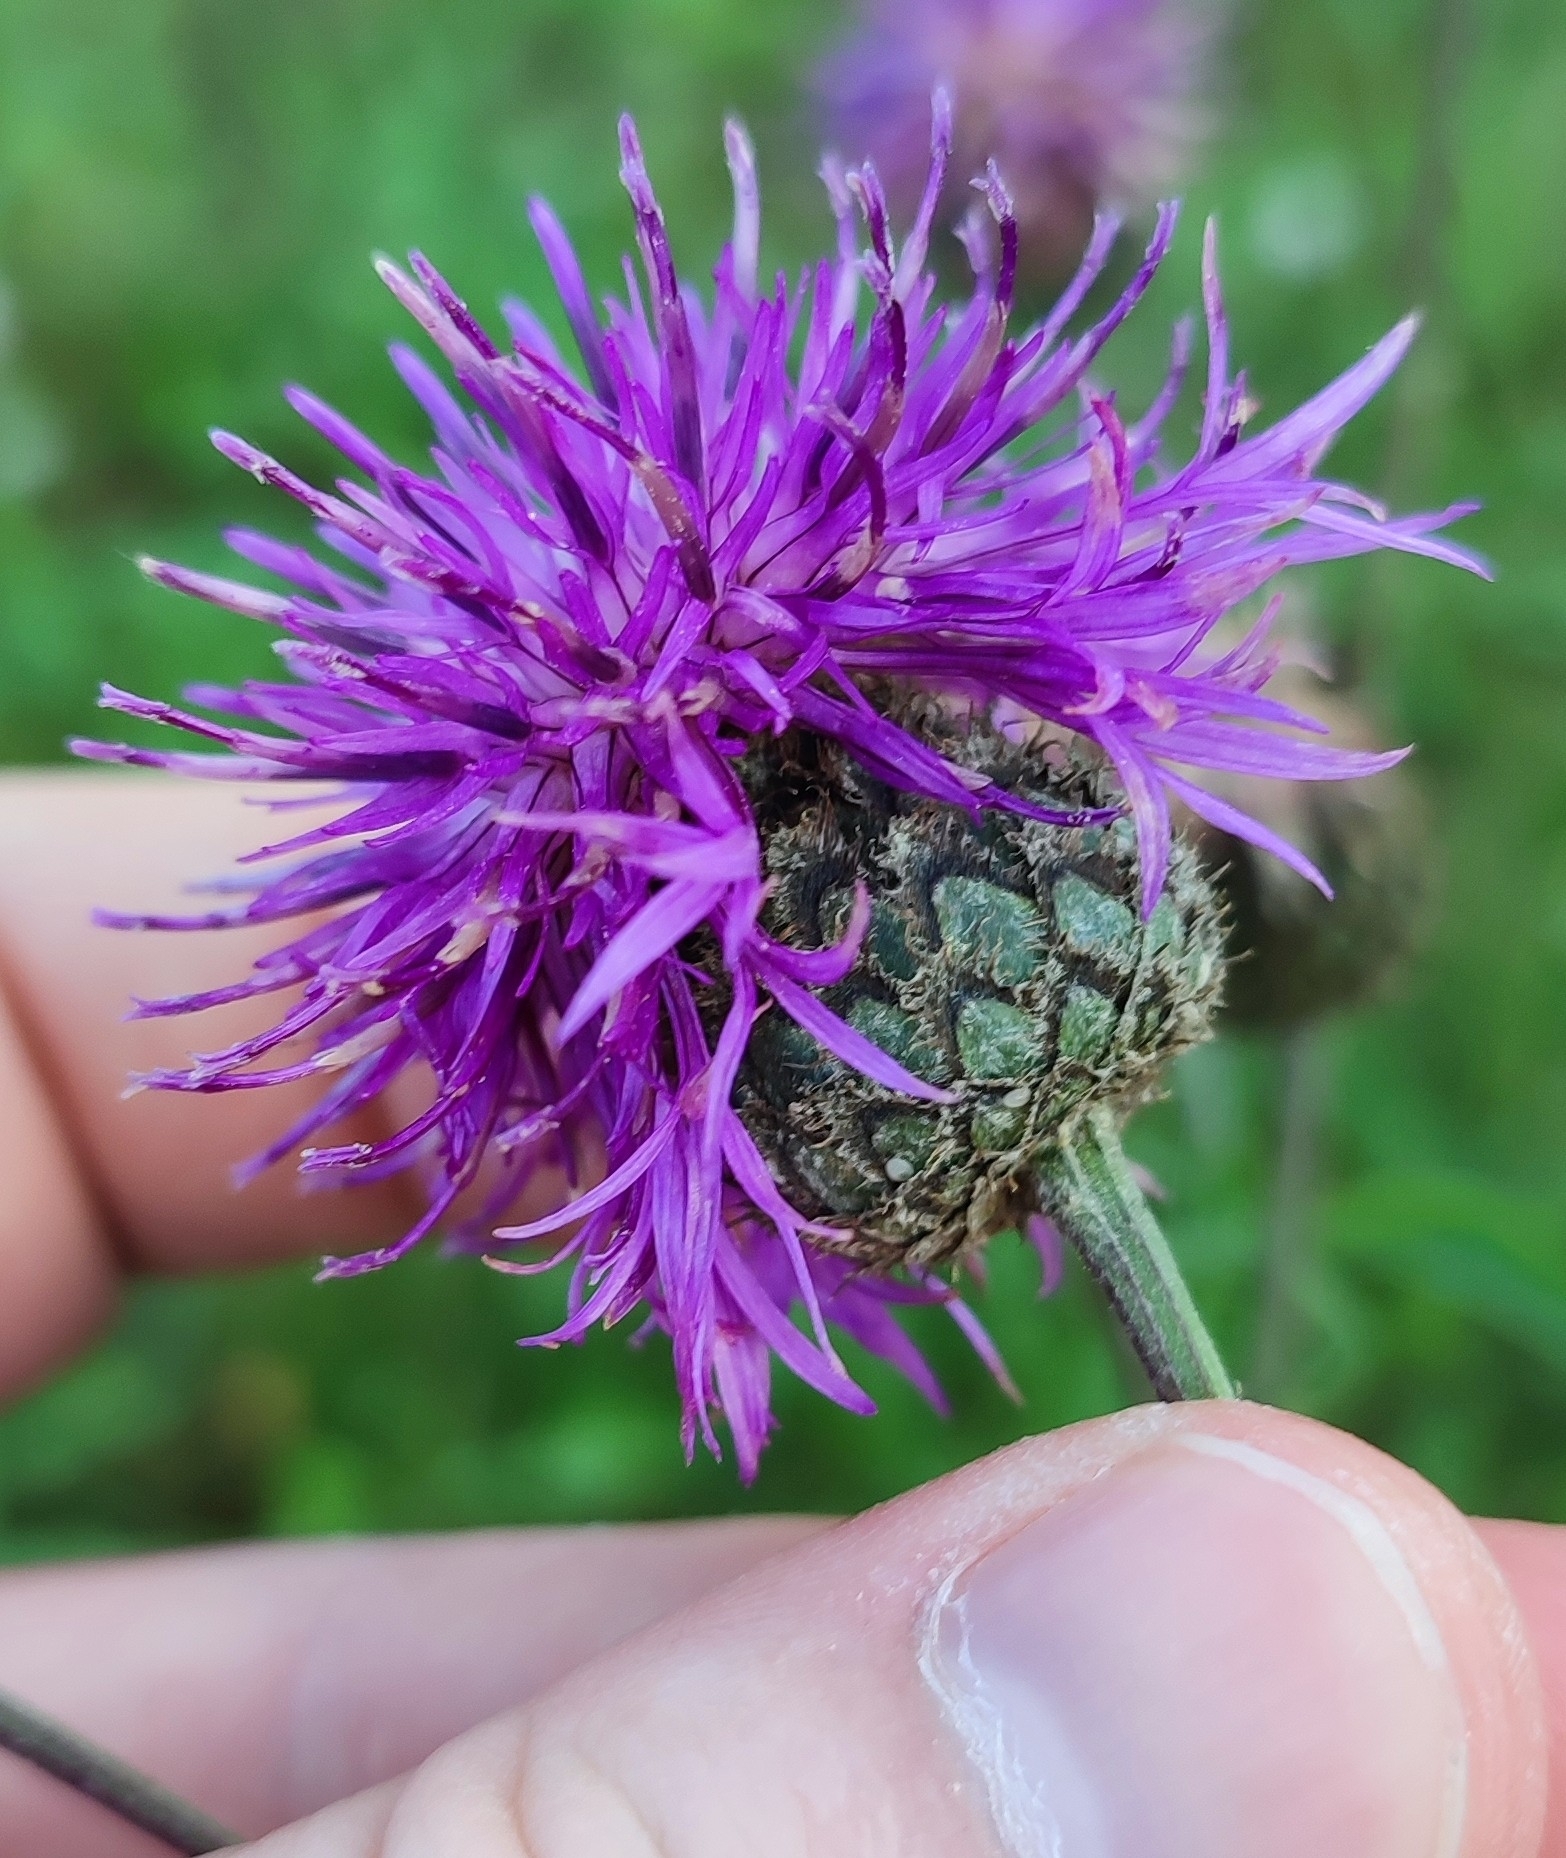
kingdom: Plantae
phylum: Tracheophyta
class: Magnoliopsida
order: Asterales
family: Asteraceae
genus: Centaurea
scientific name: Centaurea scabiosa
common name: Greater knapweed
